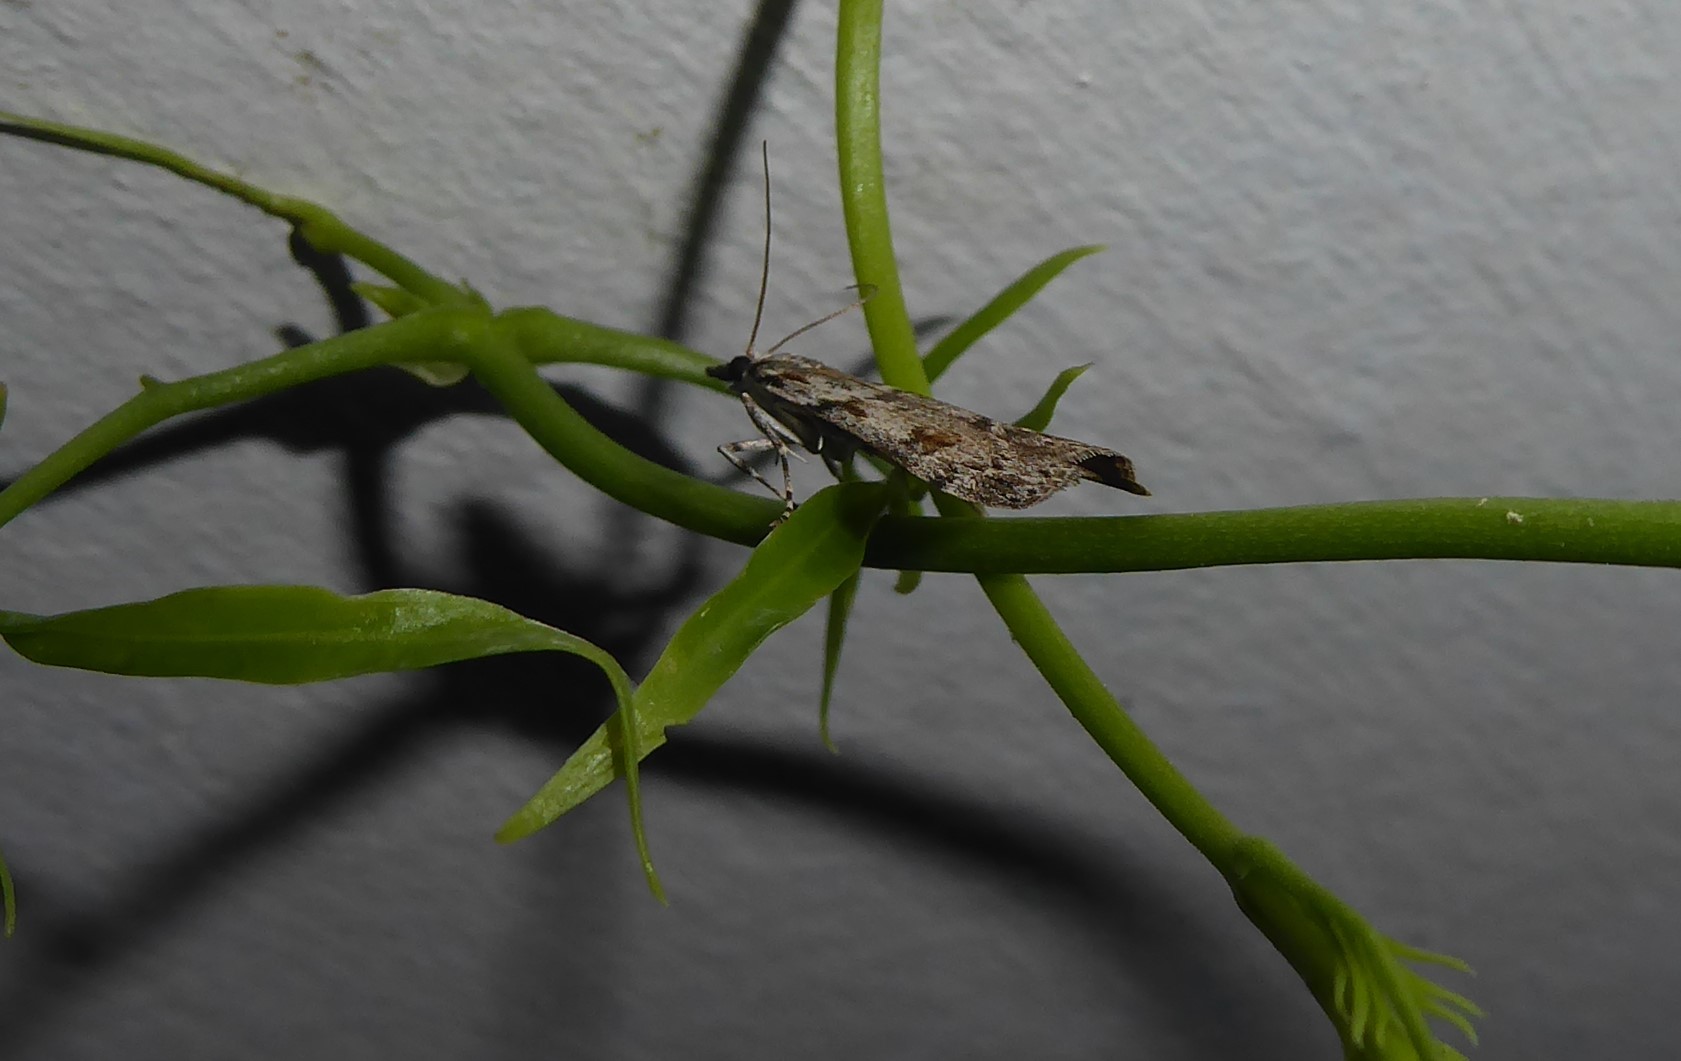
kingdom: Animalia
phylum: Arthropoda
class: Insecta
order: Lepidoptera
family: Crambidae
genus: Scoparia
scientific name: Scoparia halopis
